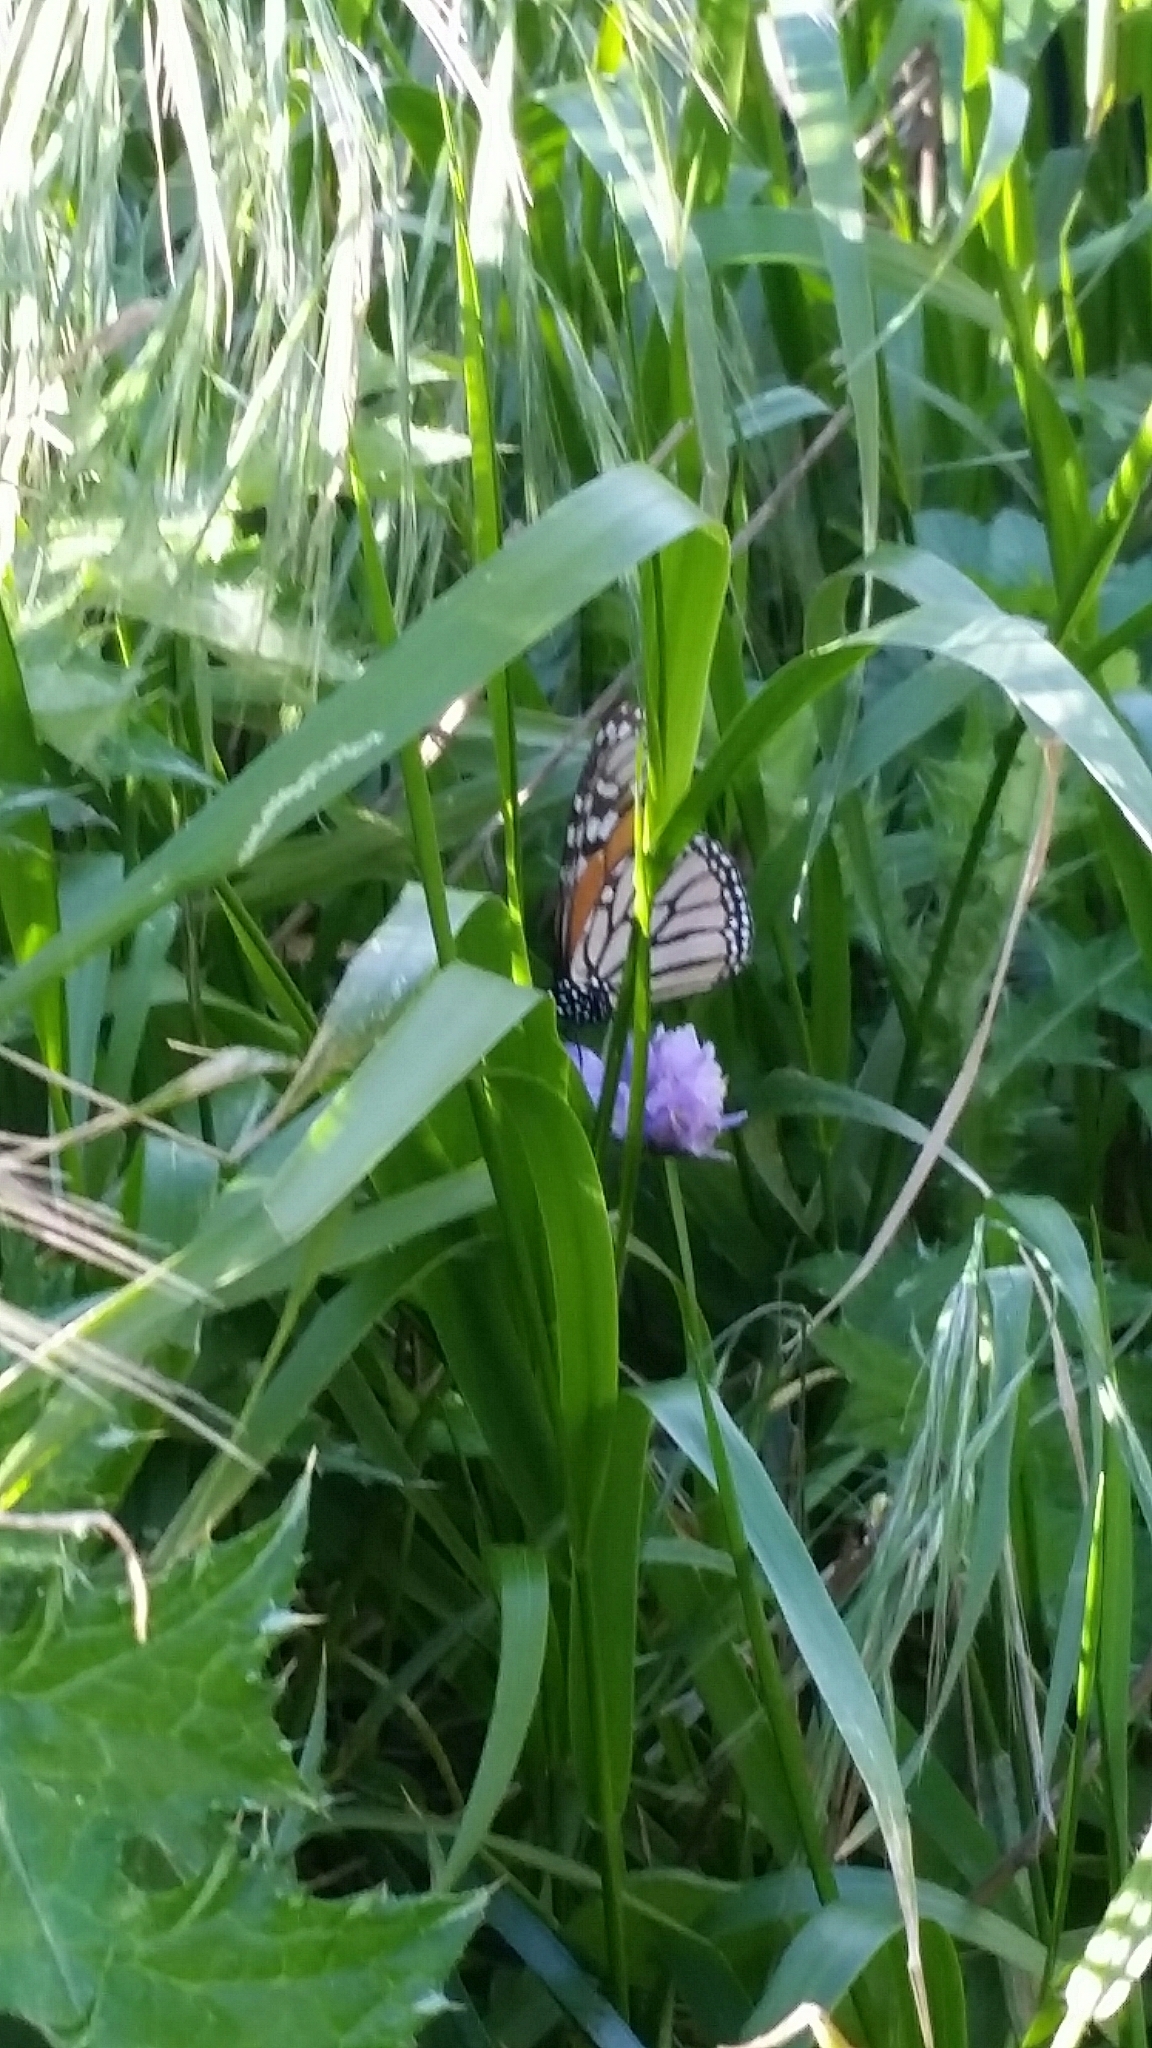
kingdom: Animalia
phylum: Arthropoda
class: Insecta
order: Lepidoptera
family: Nymphalidae
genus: Danaus
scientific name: Danaus plexippus
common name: Monarch
